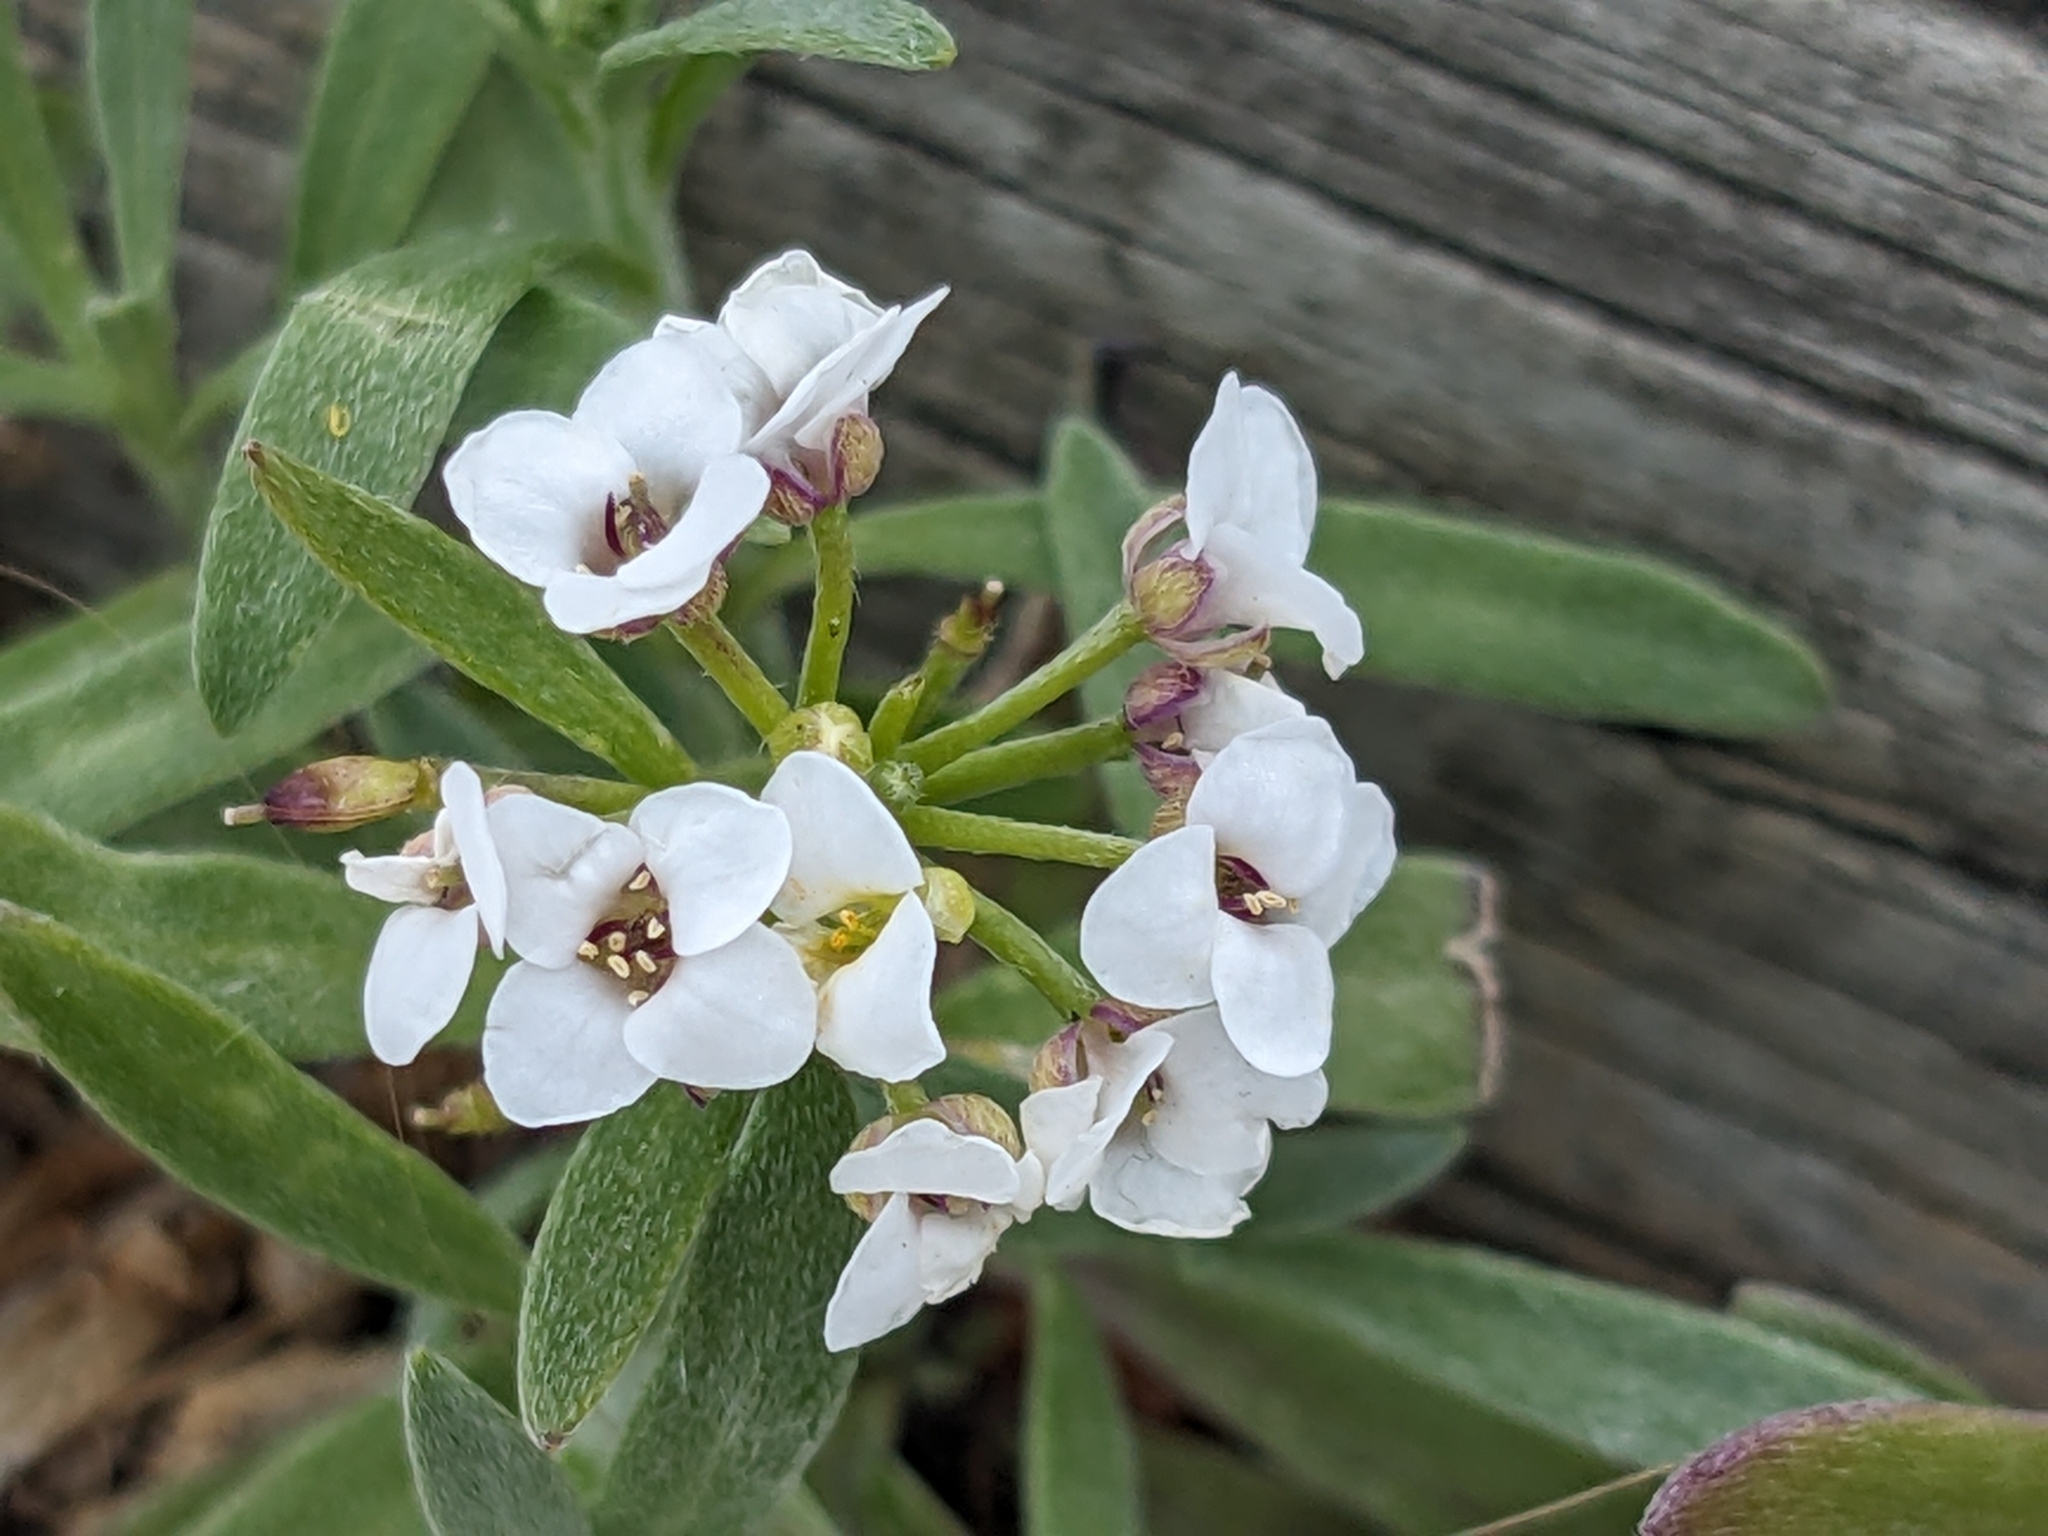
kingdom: Plantae
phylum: Tracheophyta
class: Magnoliopsida
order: Brassicales
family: Brassicaceae
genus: Lobularia
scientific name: Lobularia maritima
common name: Sweet alison
